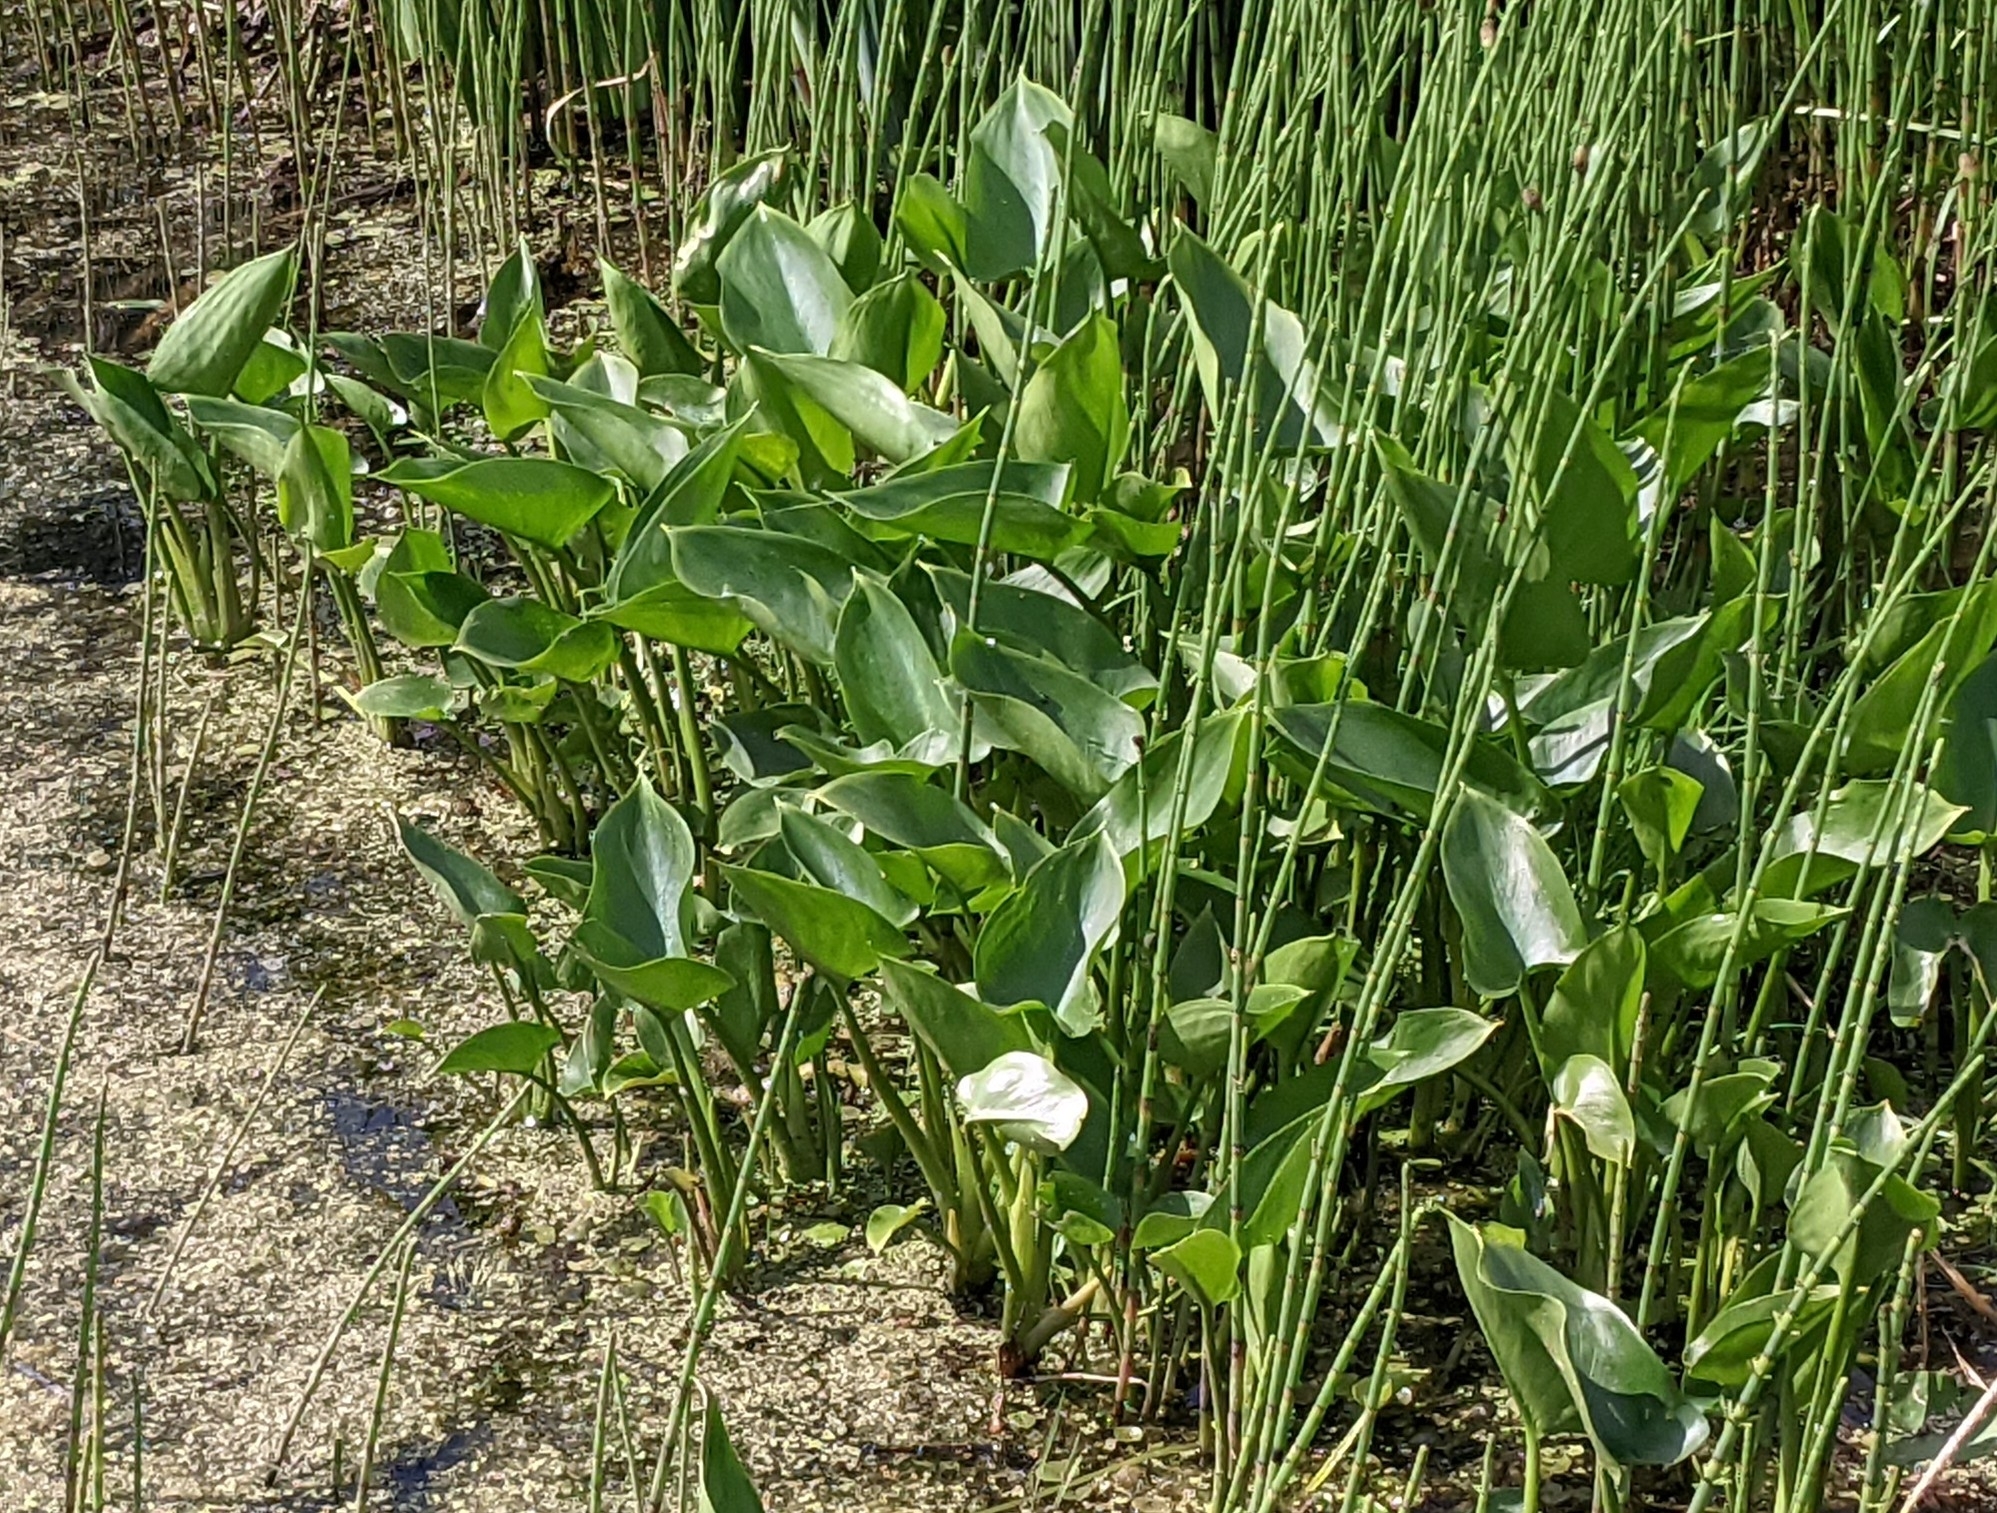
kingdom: Plantae
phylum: Tracheophyta
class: Liliopsida
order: Alismatales
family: Araceae
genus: Calla
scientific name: Calla palustris
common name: Bog arum
